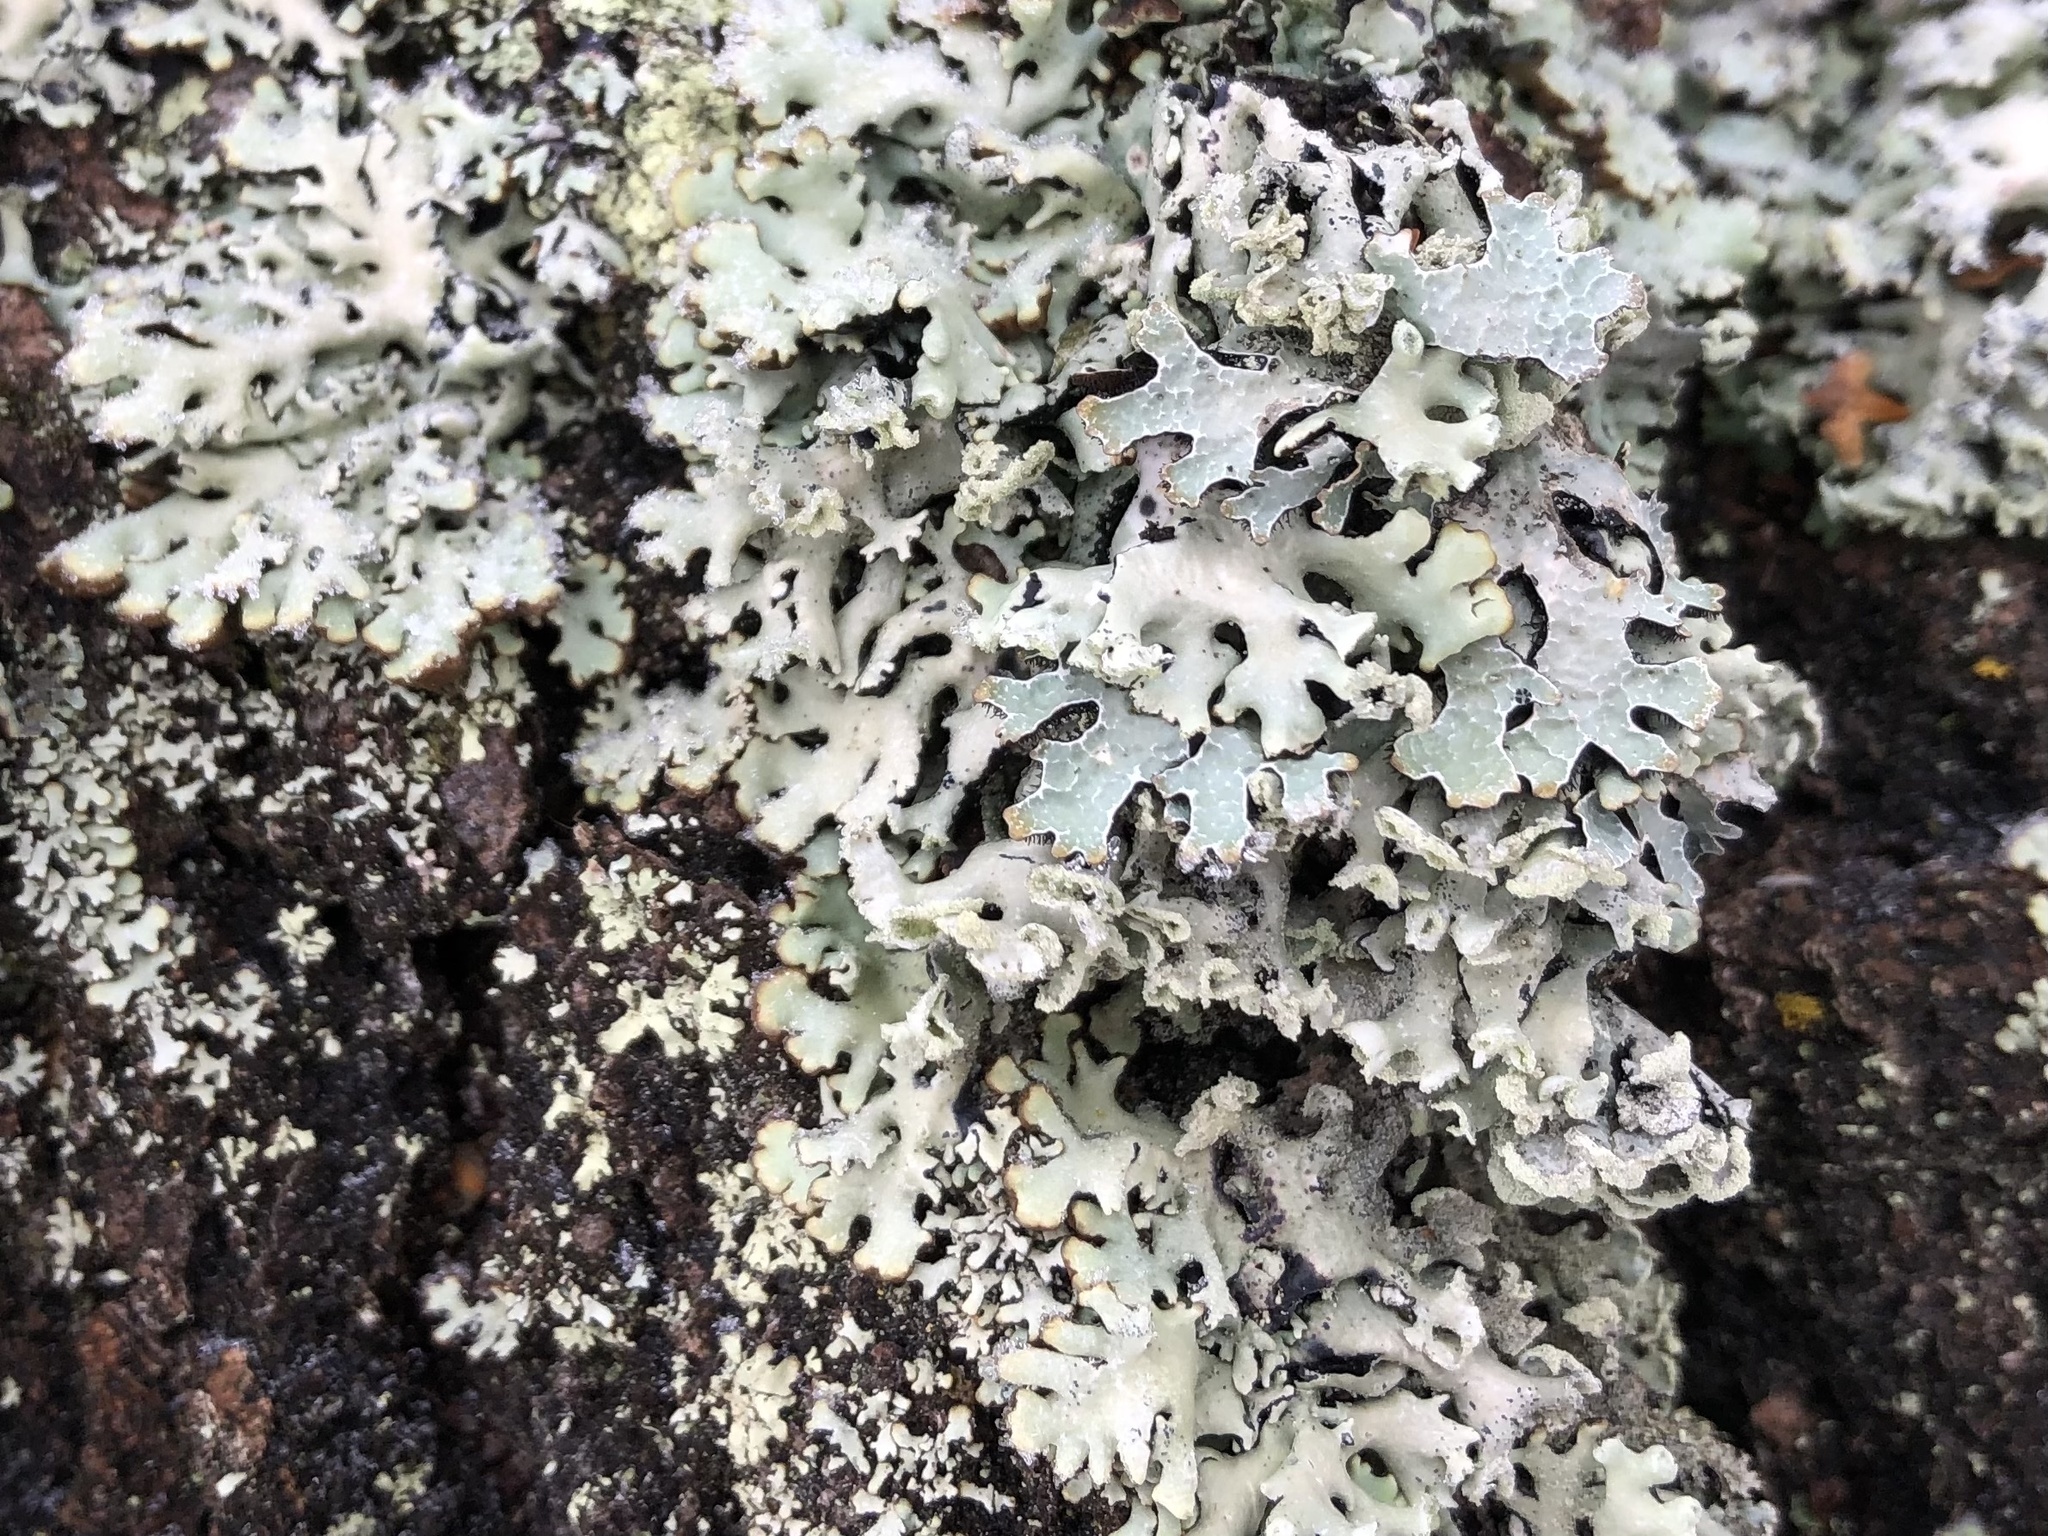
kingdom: Fungi
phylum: Ascomycota
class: Lecanoromycetes
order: Lecanorales
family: Parmeliaceae
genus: Parmelia
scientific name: Parmelia sulcata
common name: Netted shield lichen
